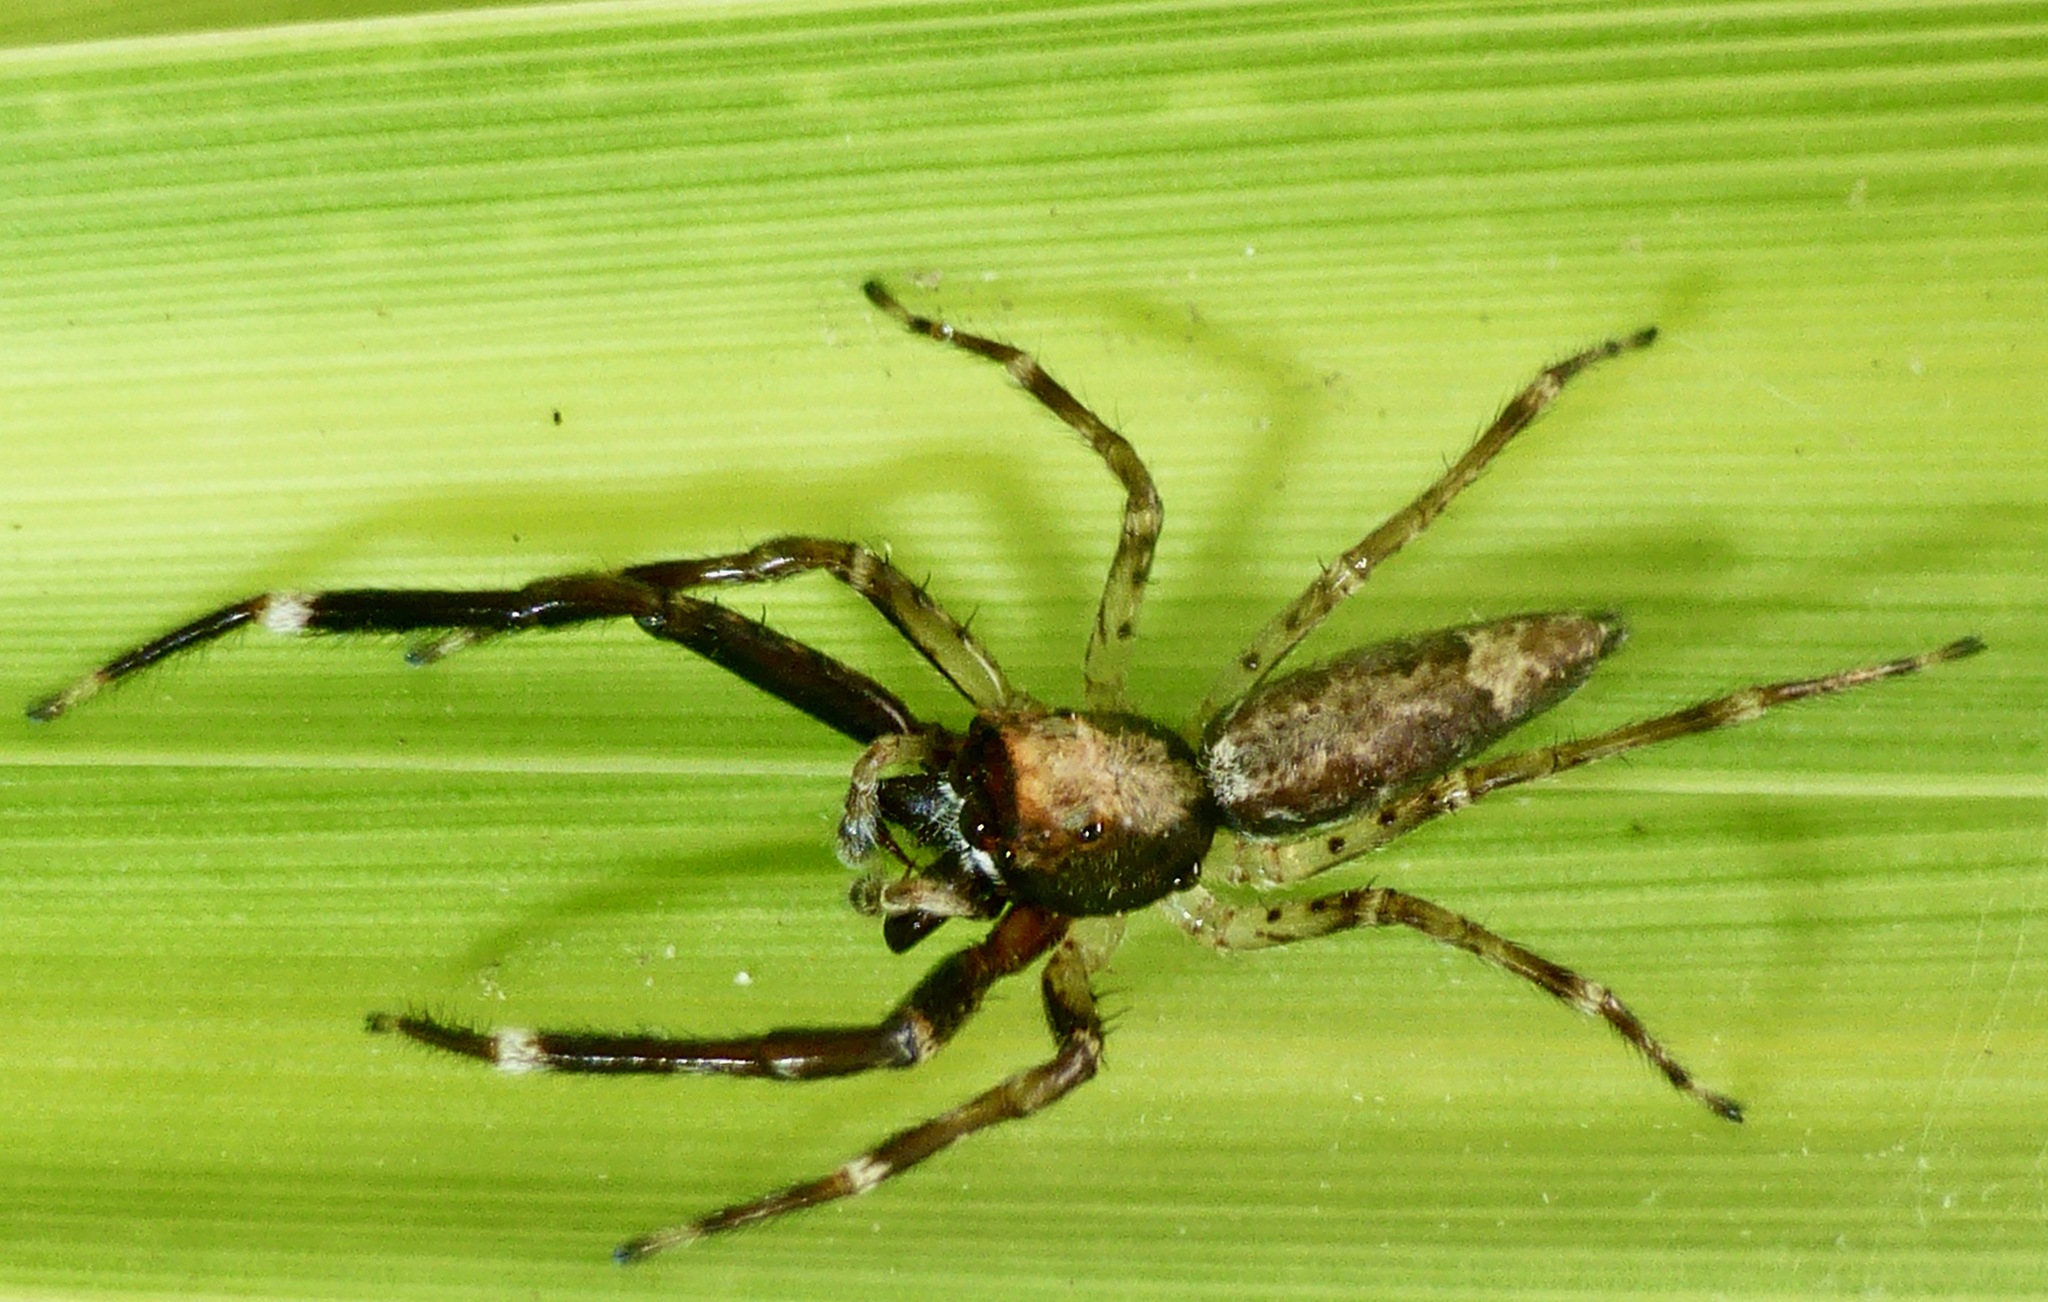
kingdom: Animalia
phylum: Arthropoda
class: Arachnida
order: Araneae
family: Salticidae
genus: Helpis
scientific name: Helpis minitabunda
